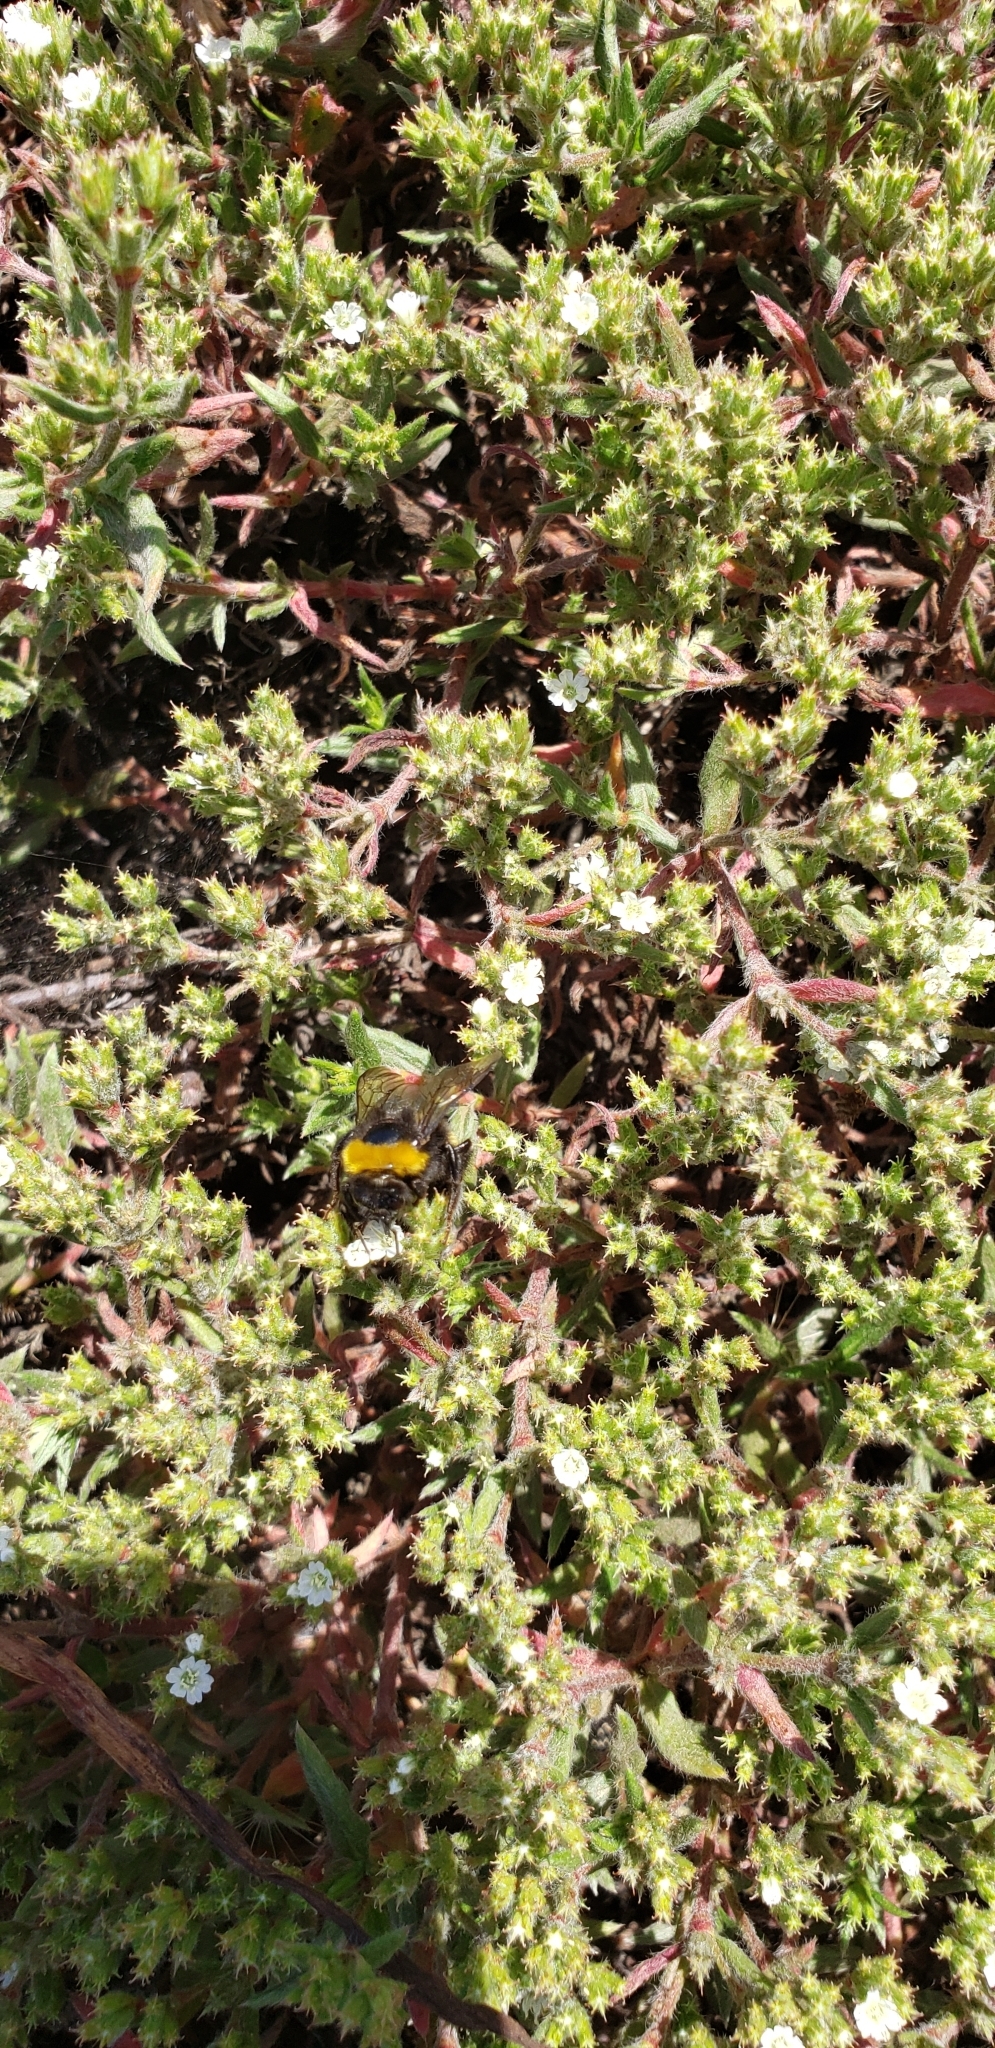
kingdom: Animalia
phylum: Arthropoda
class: Insecta
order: Hymenoptera
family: Apidae
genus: Bombus
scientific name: Bombus terrestris
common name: Buff-tailed bumblebee
